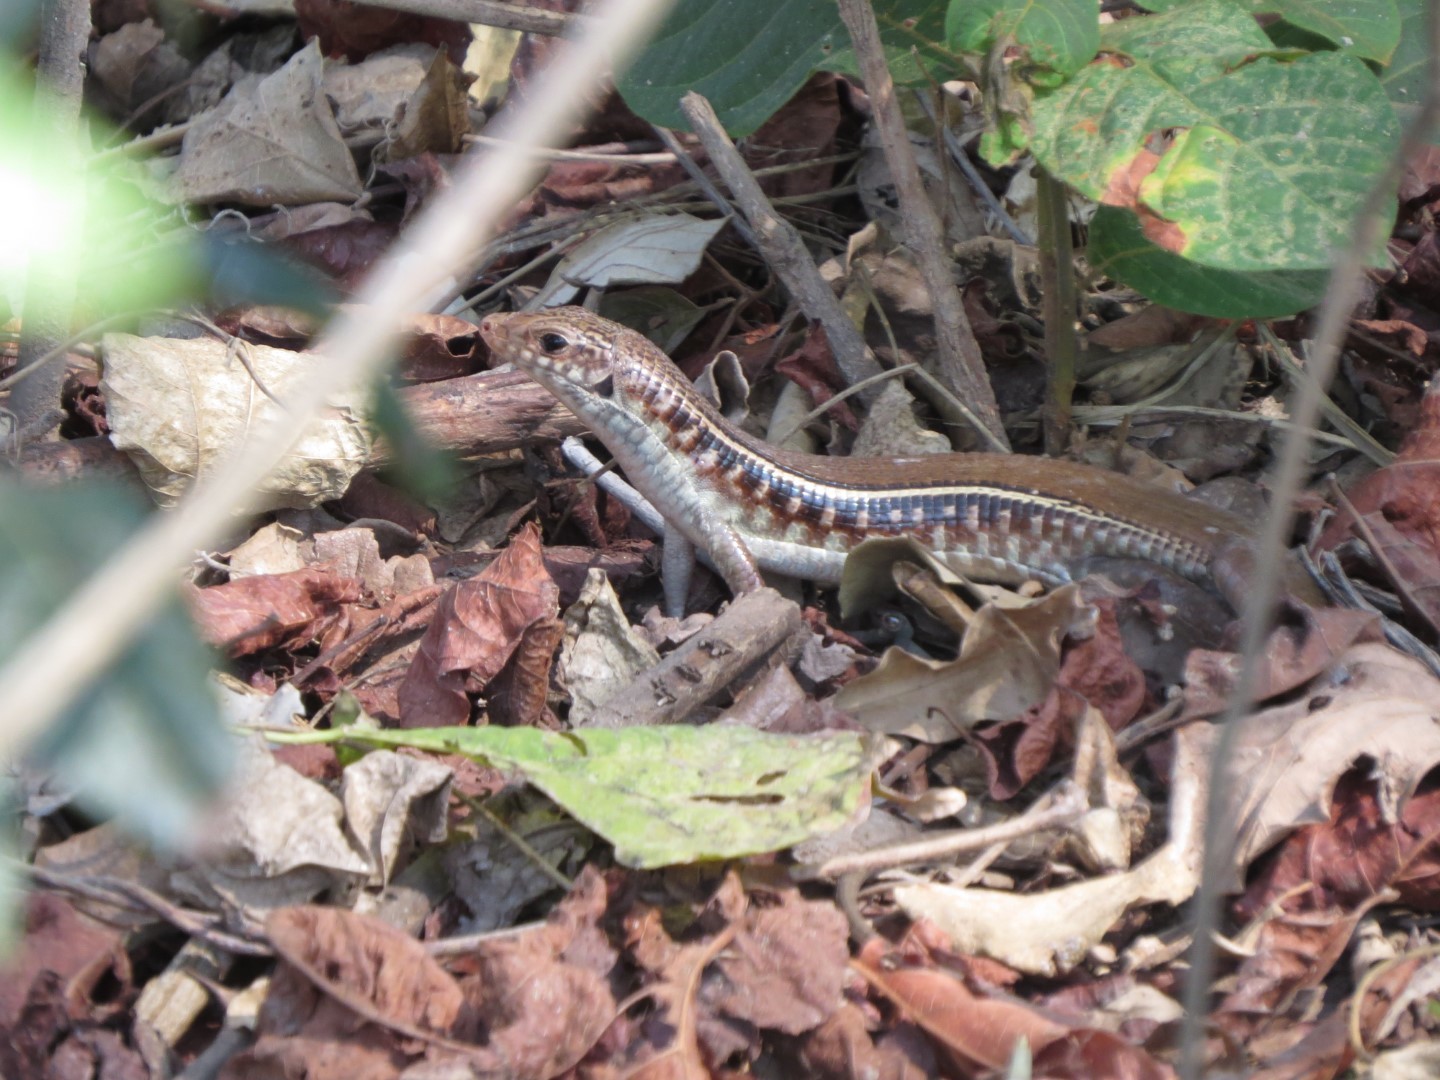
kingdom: Animalia
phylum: Chordata
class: Squamata
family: Gerrhosauridae
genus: Zonosaurus
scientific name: Zonosaurus karsteni
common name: Karsten's girdled lizard
